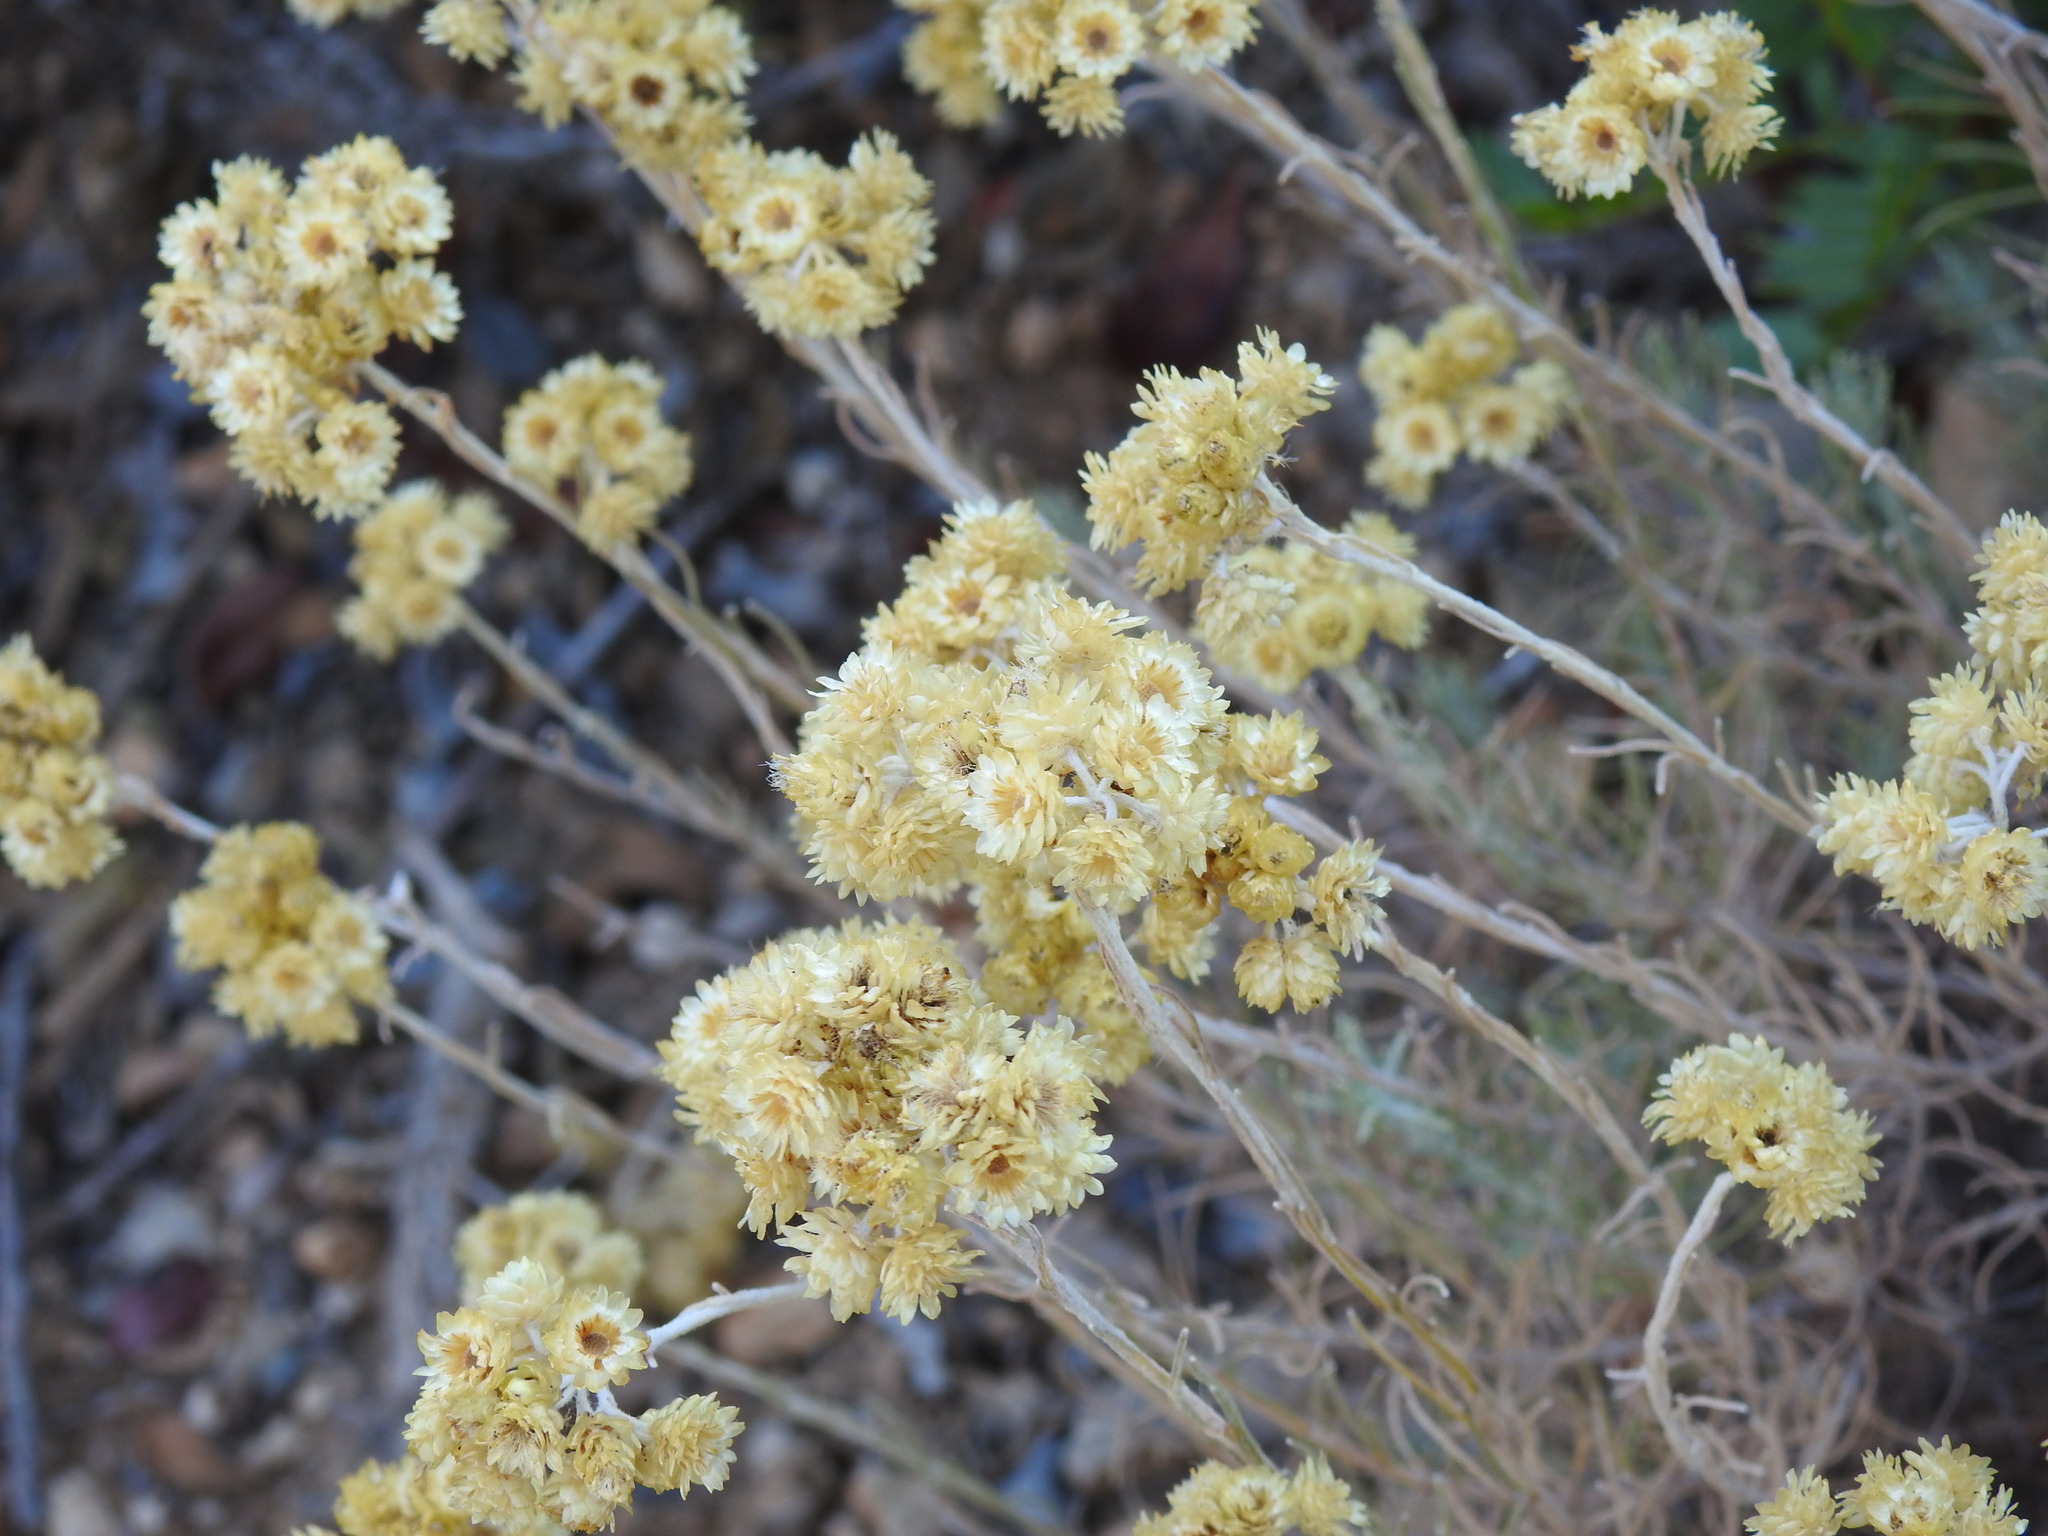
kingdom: Plantae
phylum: Tracheophyta
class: Magnoliopsida
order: Asterales
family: Asteraceae
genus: Helichrysum
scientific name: Helichrysum stoechas
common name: Goldilocks
